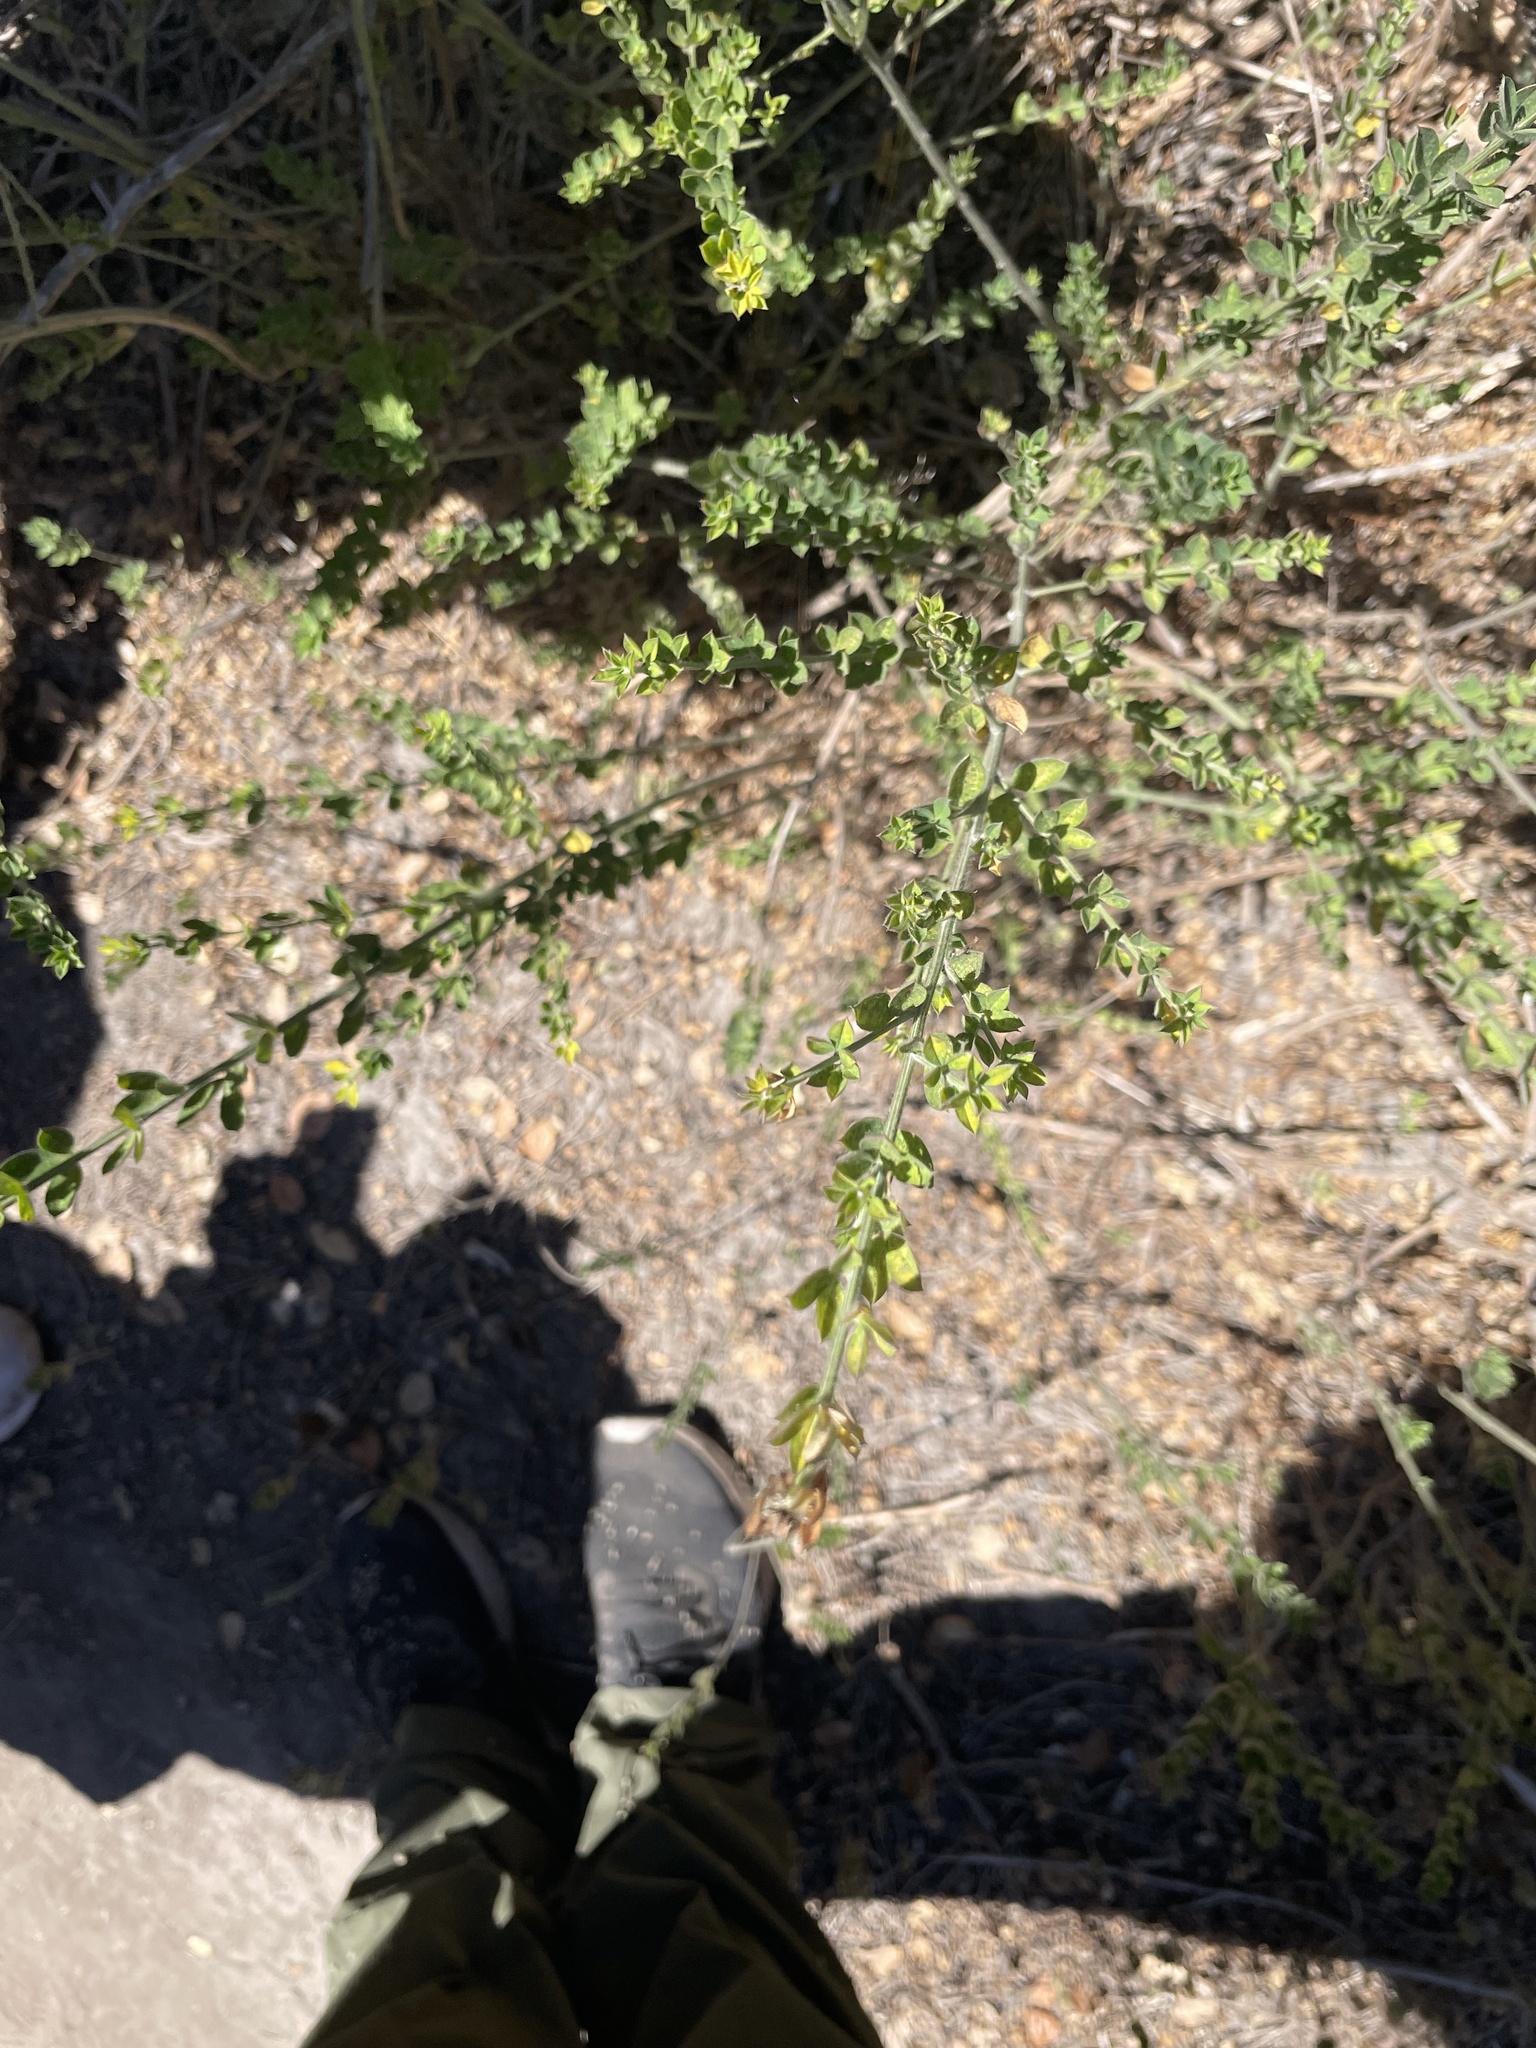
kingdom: Plantae
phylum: Tracheophyta
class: Magnoliopsida
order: Fabales
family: Fabaceae
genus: Genista
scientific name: Genista monspessulana
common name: Montpellier broom
